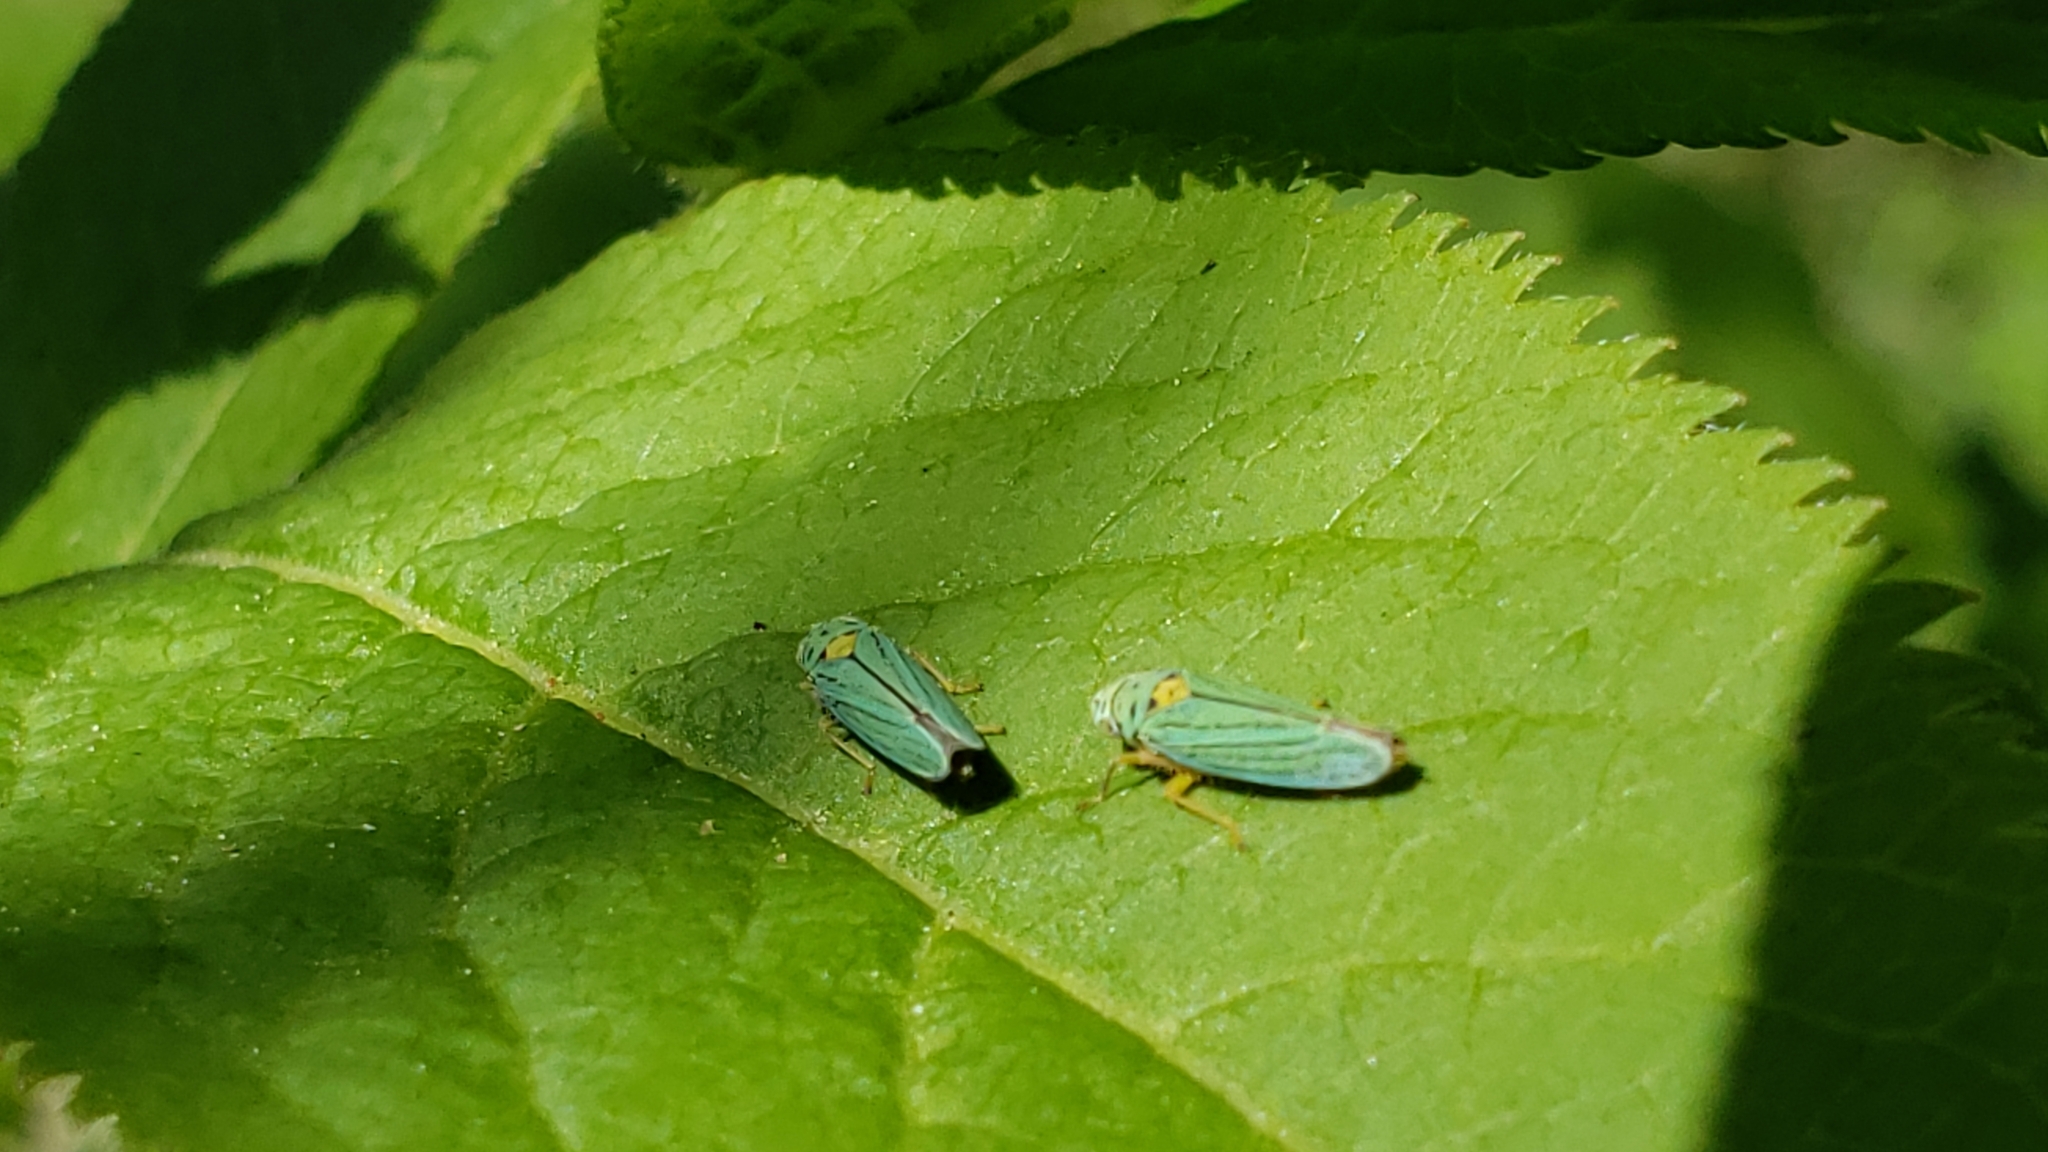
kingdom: Animalia
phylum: Arthropoda
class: Insecta
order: Hemiptera
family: Cicadellidae
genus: Graphocephala
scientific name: Graphocephala atropunctata
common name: Blue-green sharpshooter
